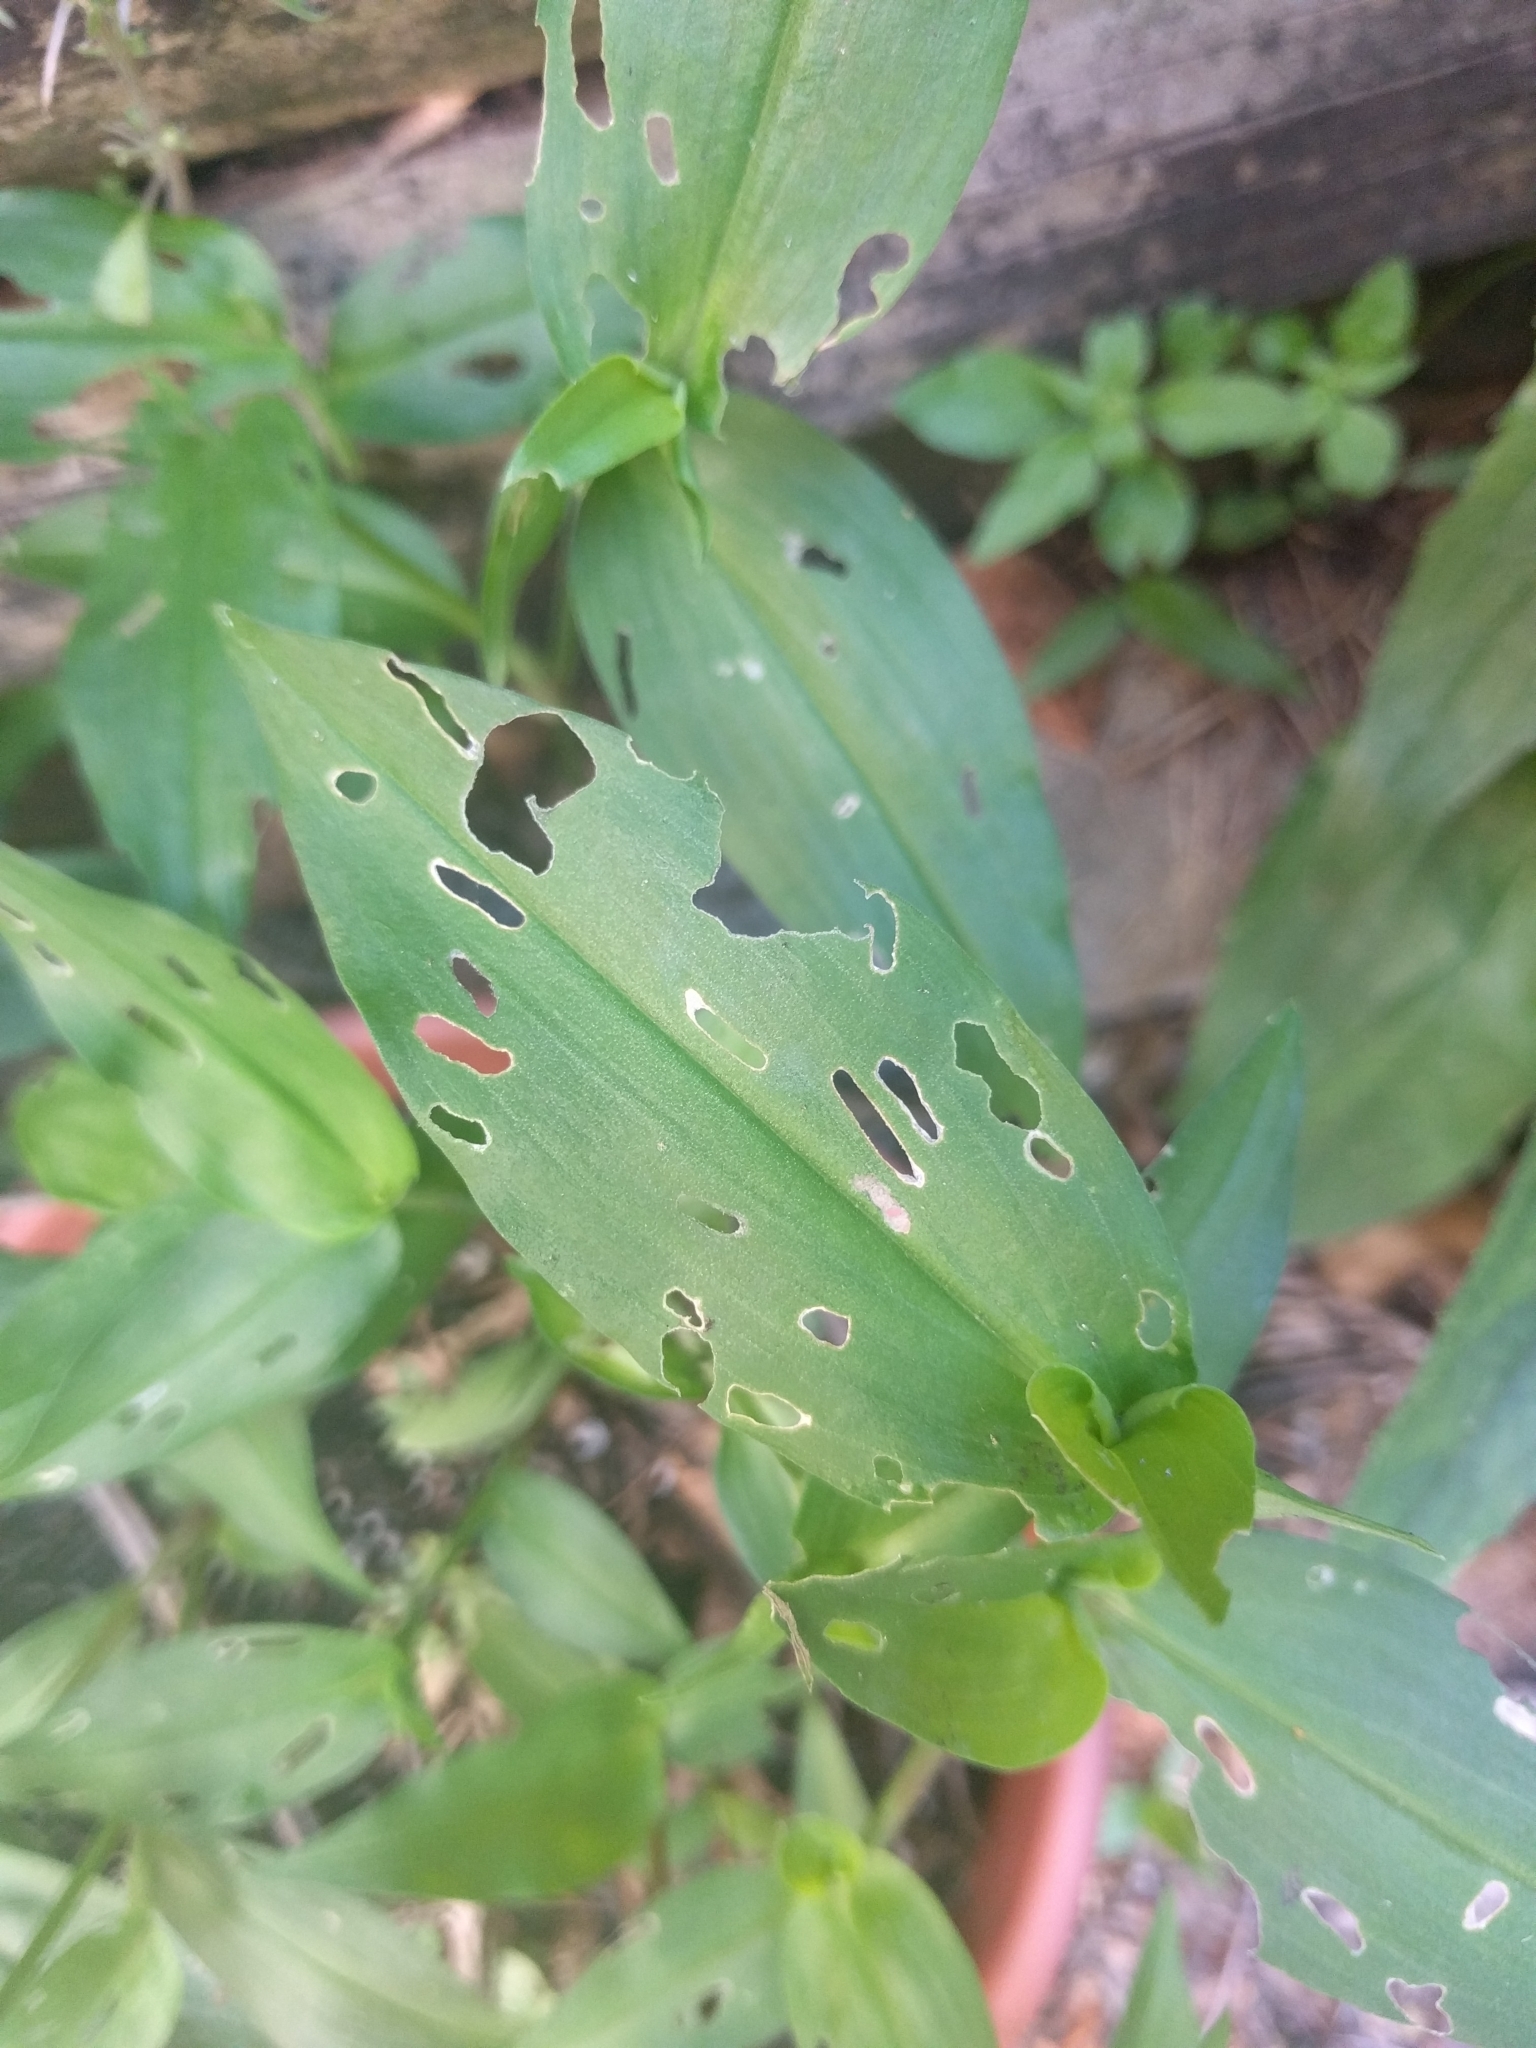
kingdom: Plantae
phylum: Tracheophyta
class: Liliopsida
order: Commelinales
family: Commelinaceae
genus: Commelina
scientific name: Commelina communis
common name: Asiatic dayflower
